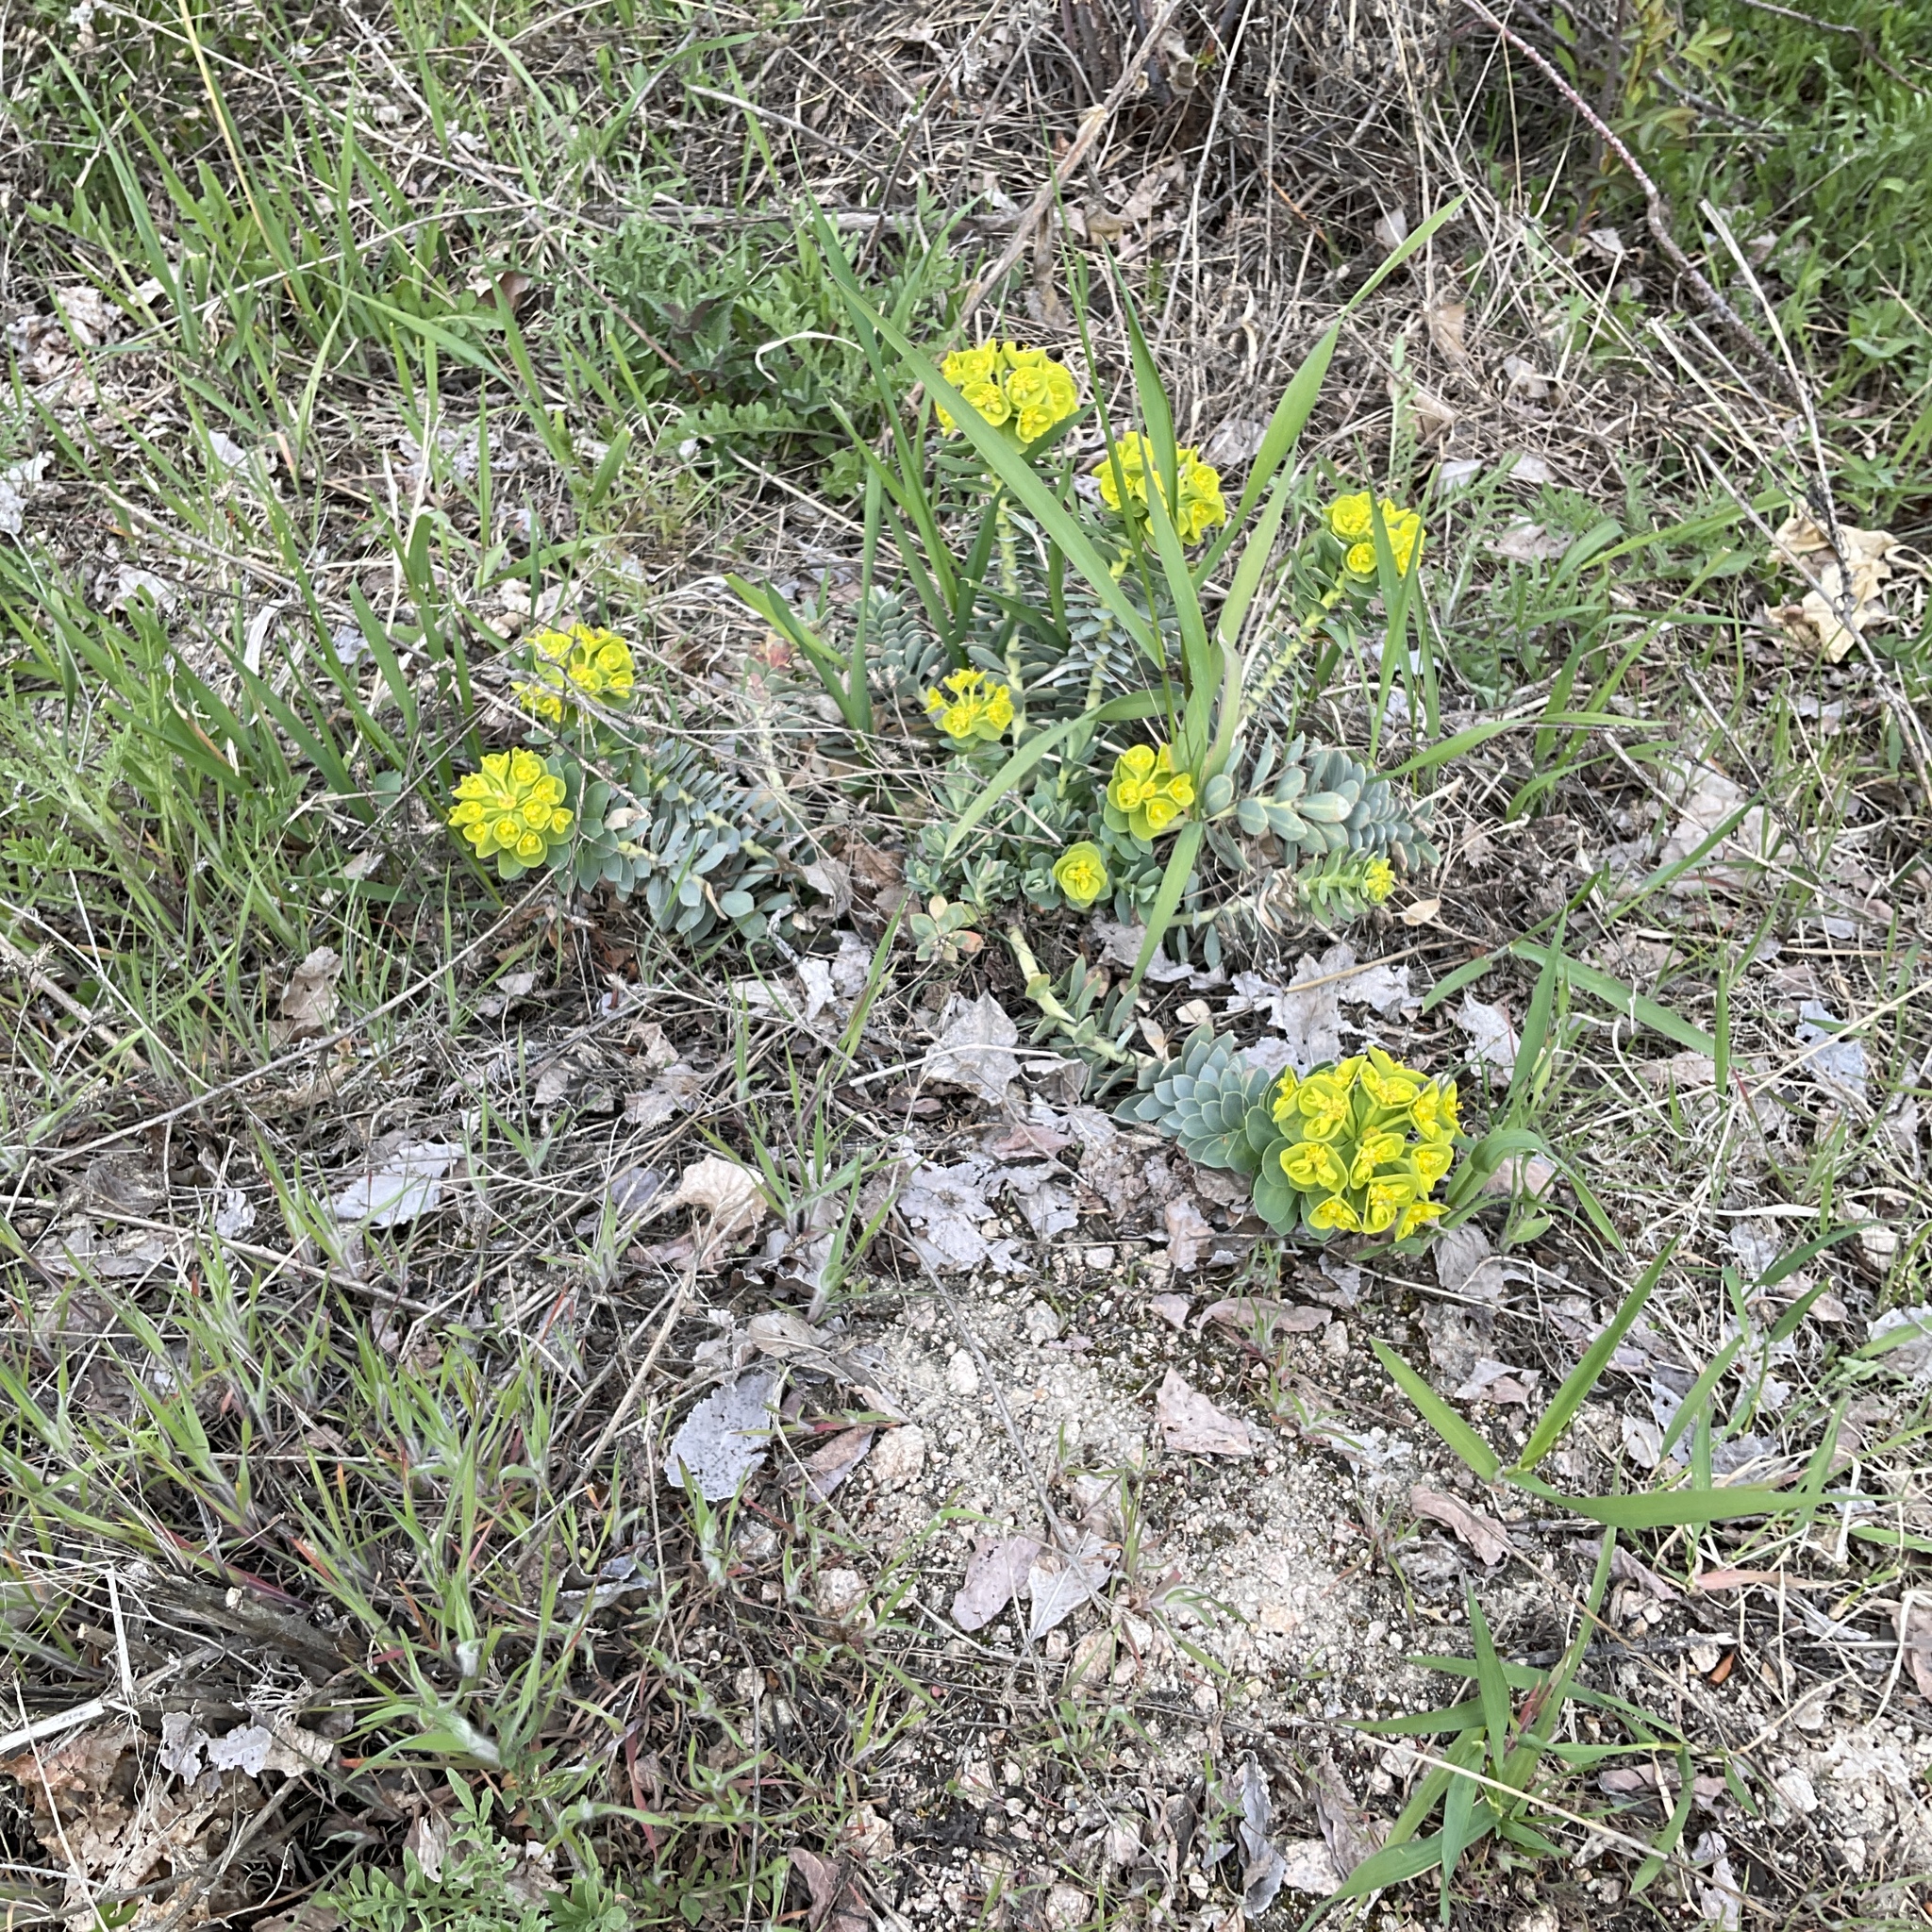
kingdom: Plantae
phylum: Tracheophyta
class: Magnoliopsida
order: Malpighiales
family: Euphorbiaceae
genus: Euphorbia
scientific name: Euphorbia myrsinites
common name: Myrtle spurge
